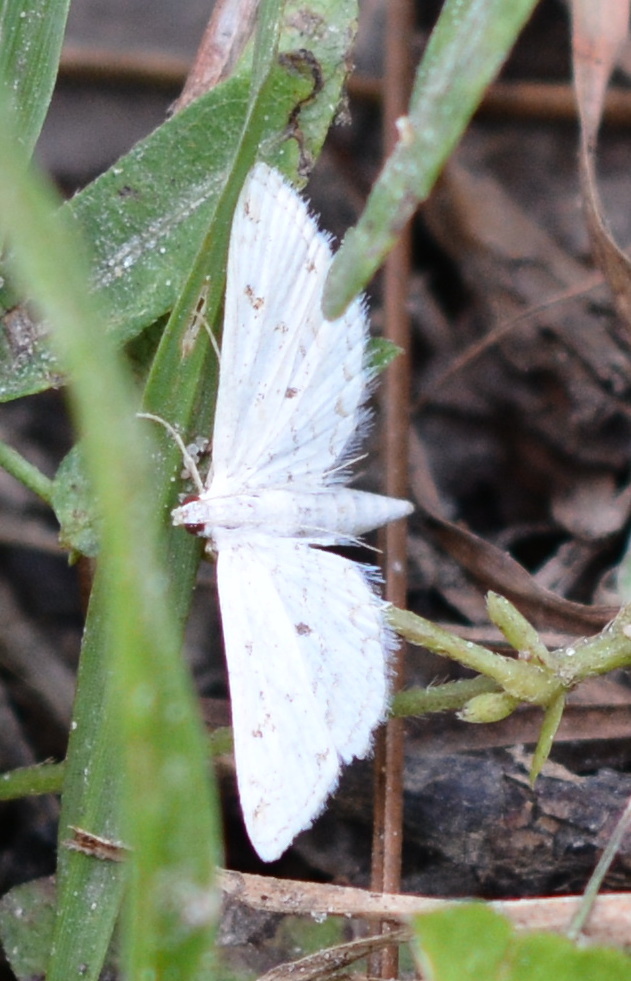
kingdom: Animalia
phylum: Arthropoda
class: Insecta
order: Lepidoptera
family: Crambidae
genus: Parapoynx
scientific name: Parapoynx allionealis
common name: Bladderwort casemaker
